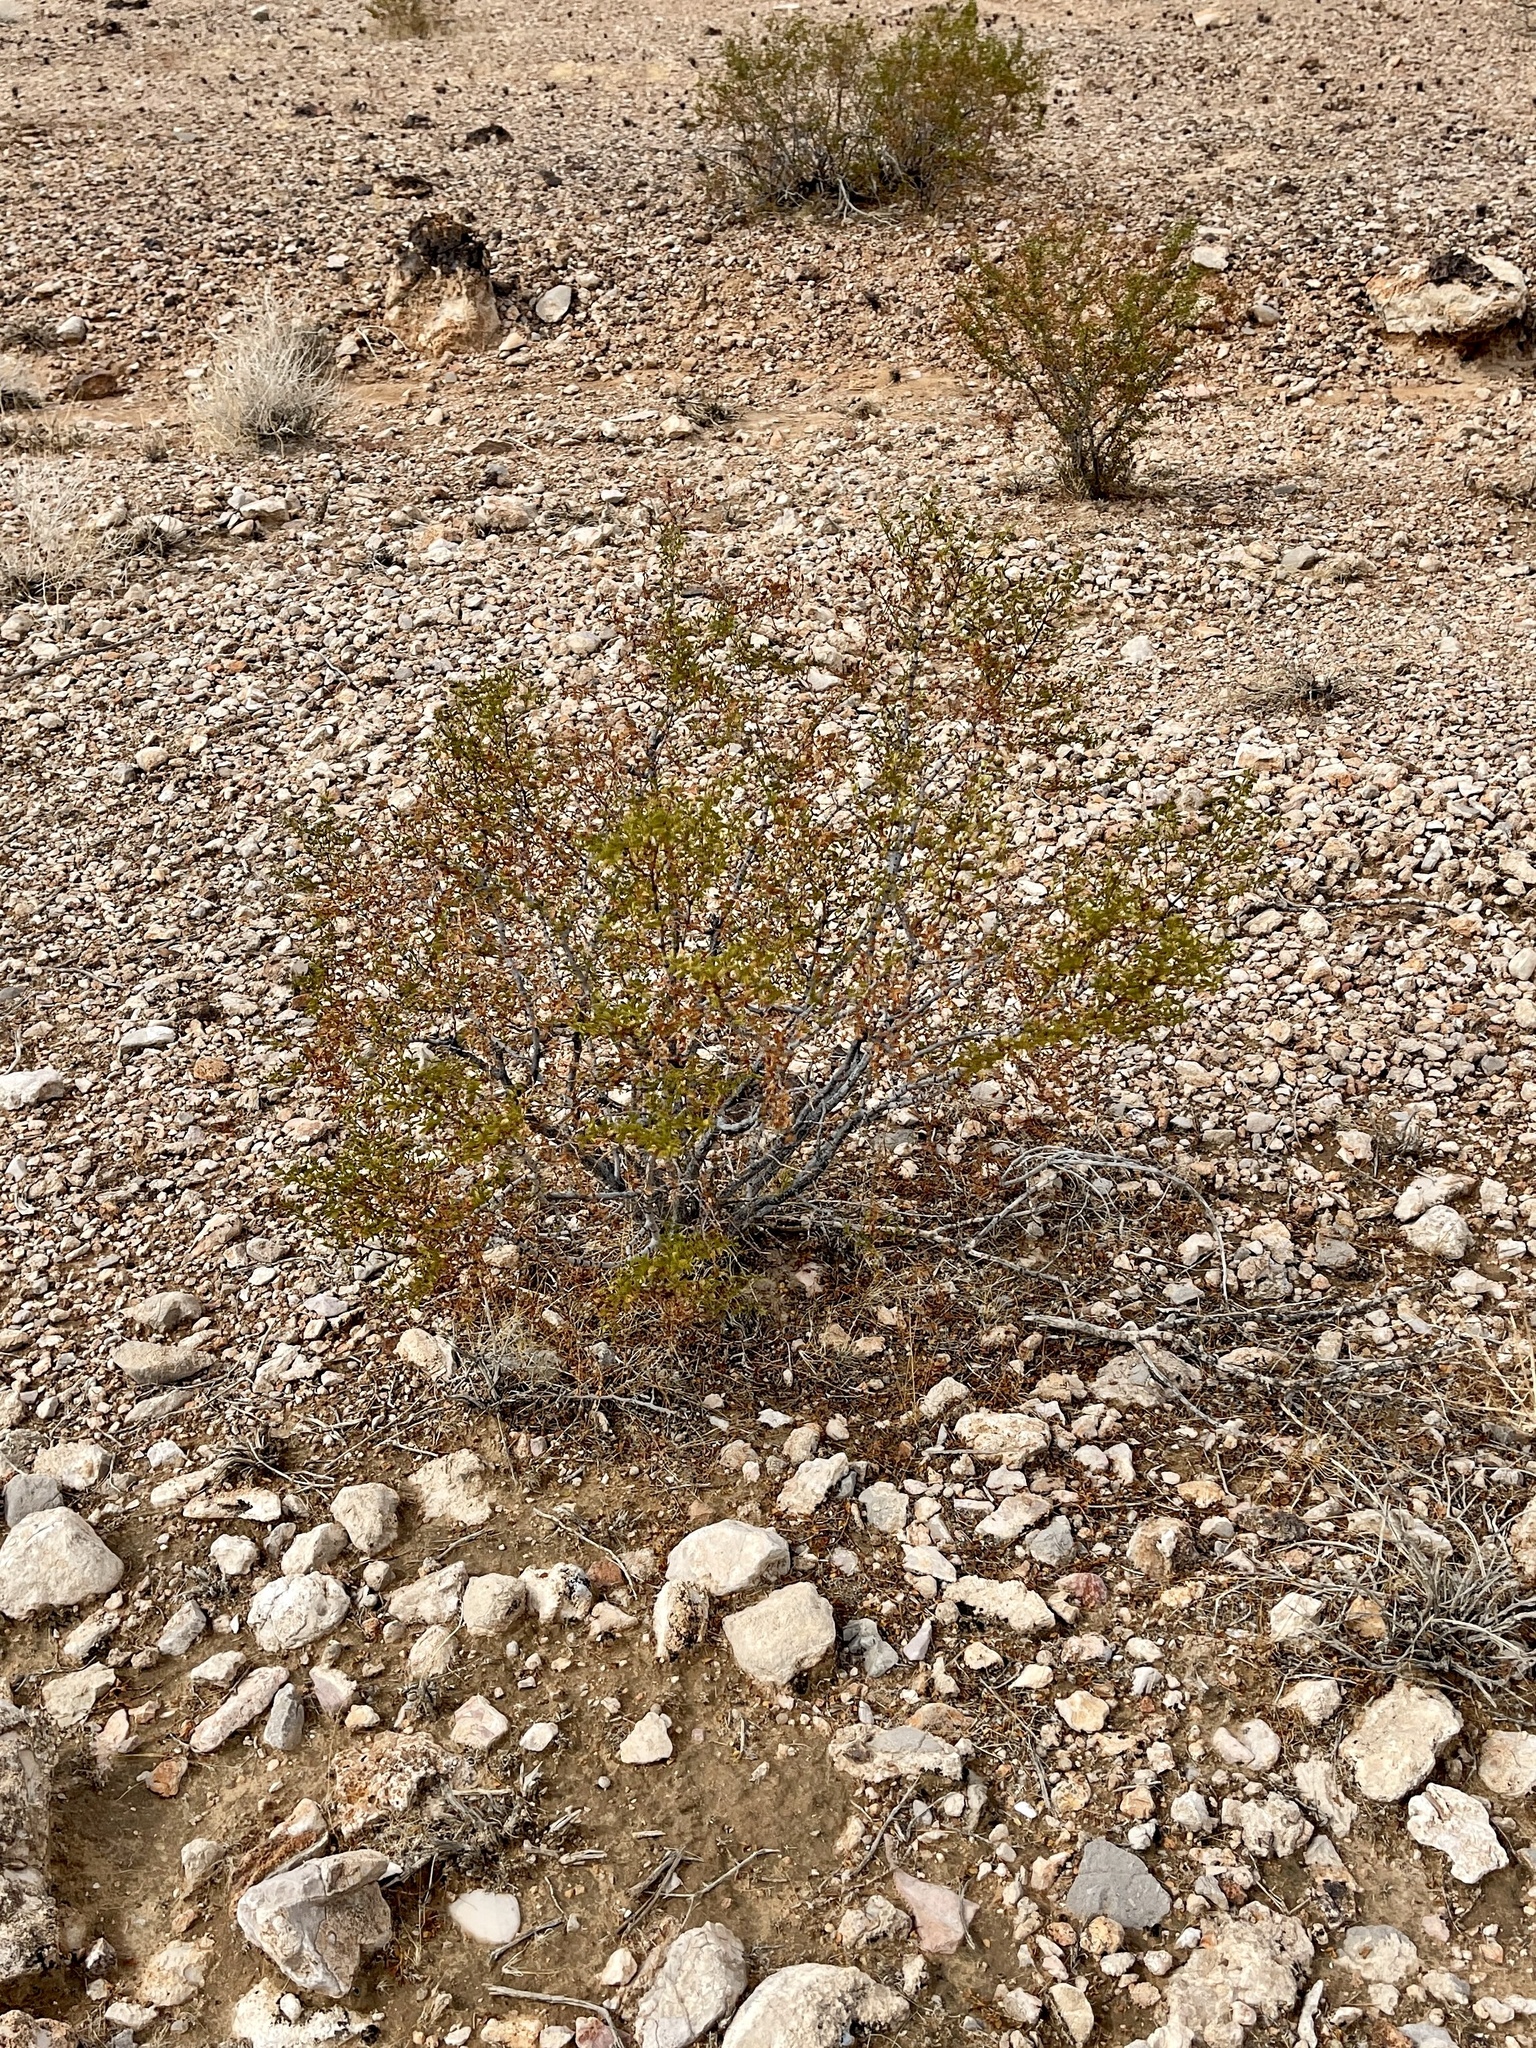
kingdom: Plantae
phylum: Tracheophyta
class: Magnoliopsida
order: Zygophyllales
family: Zygophyllaceae
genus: Larrea
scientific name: Larrea tridentata
